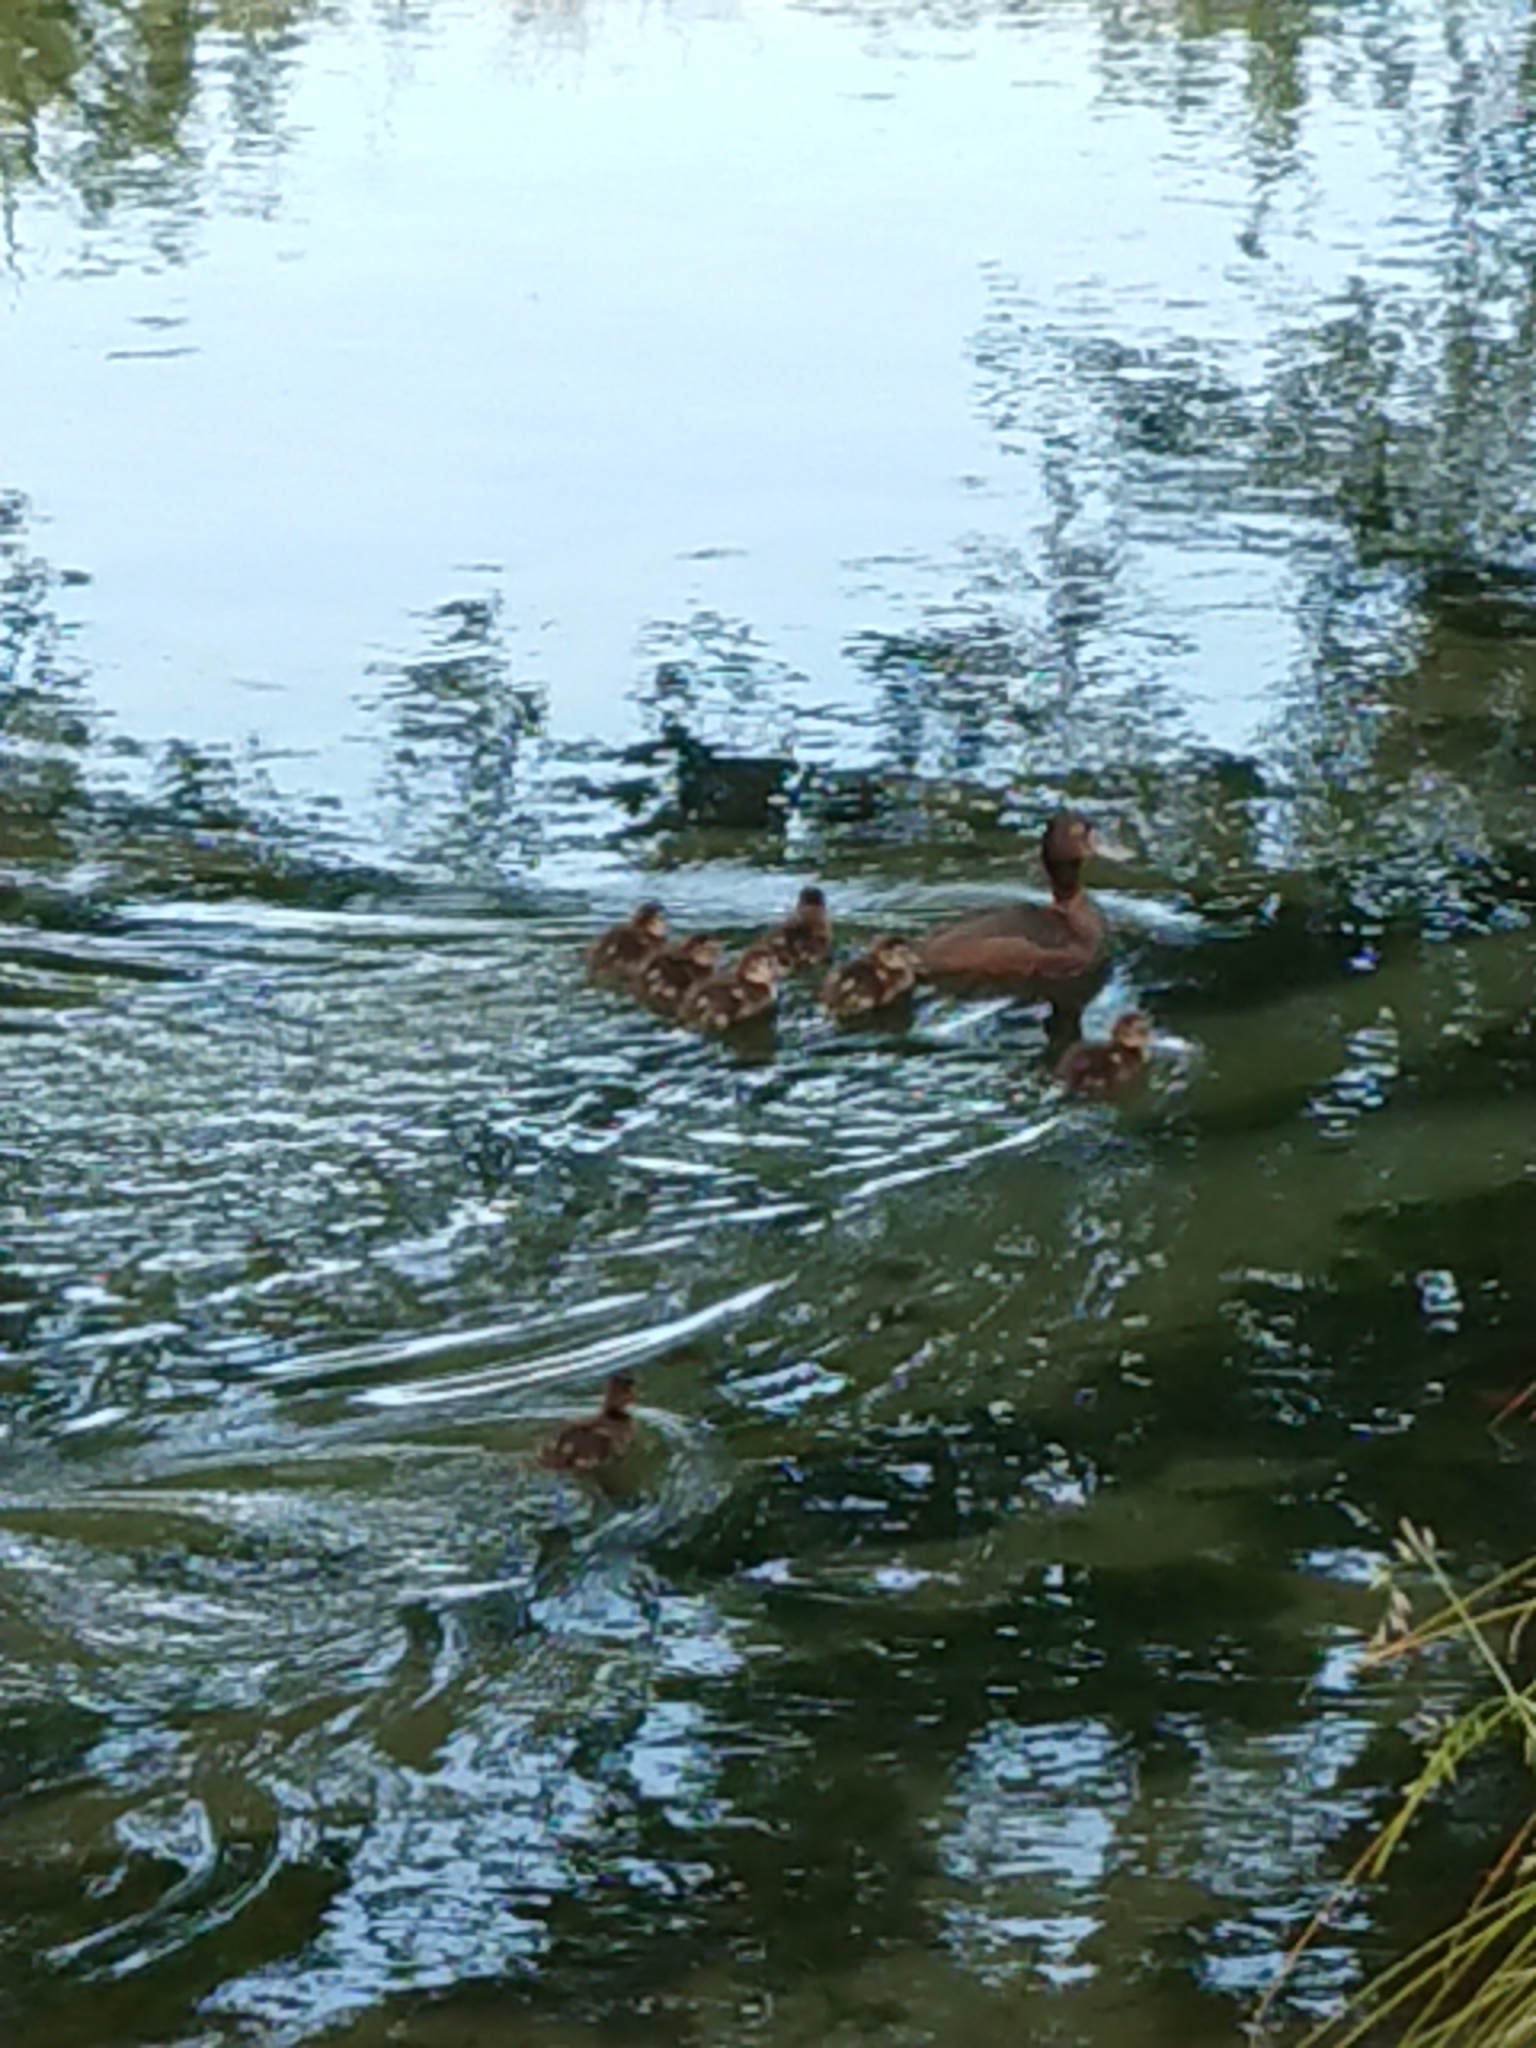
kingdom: Animalia
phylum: Chordata
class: Aves
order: Anseriformes
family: Anatidae
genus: Aythya
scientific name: Aythya novaeseelandiae
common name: New zealand scaup
